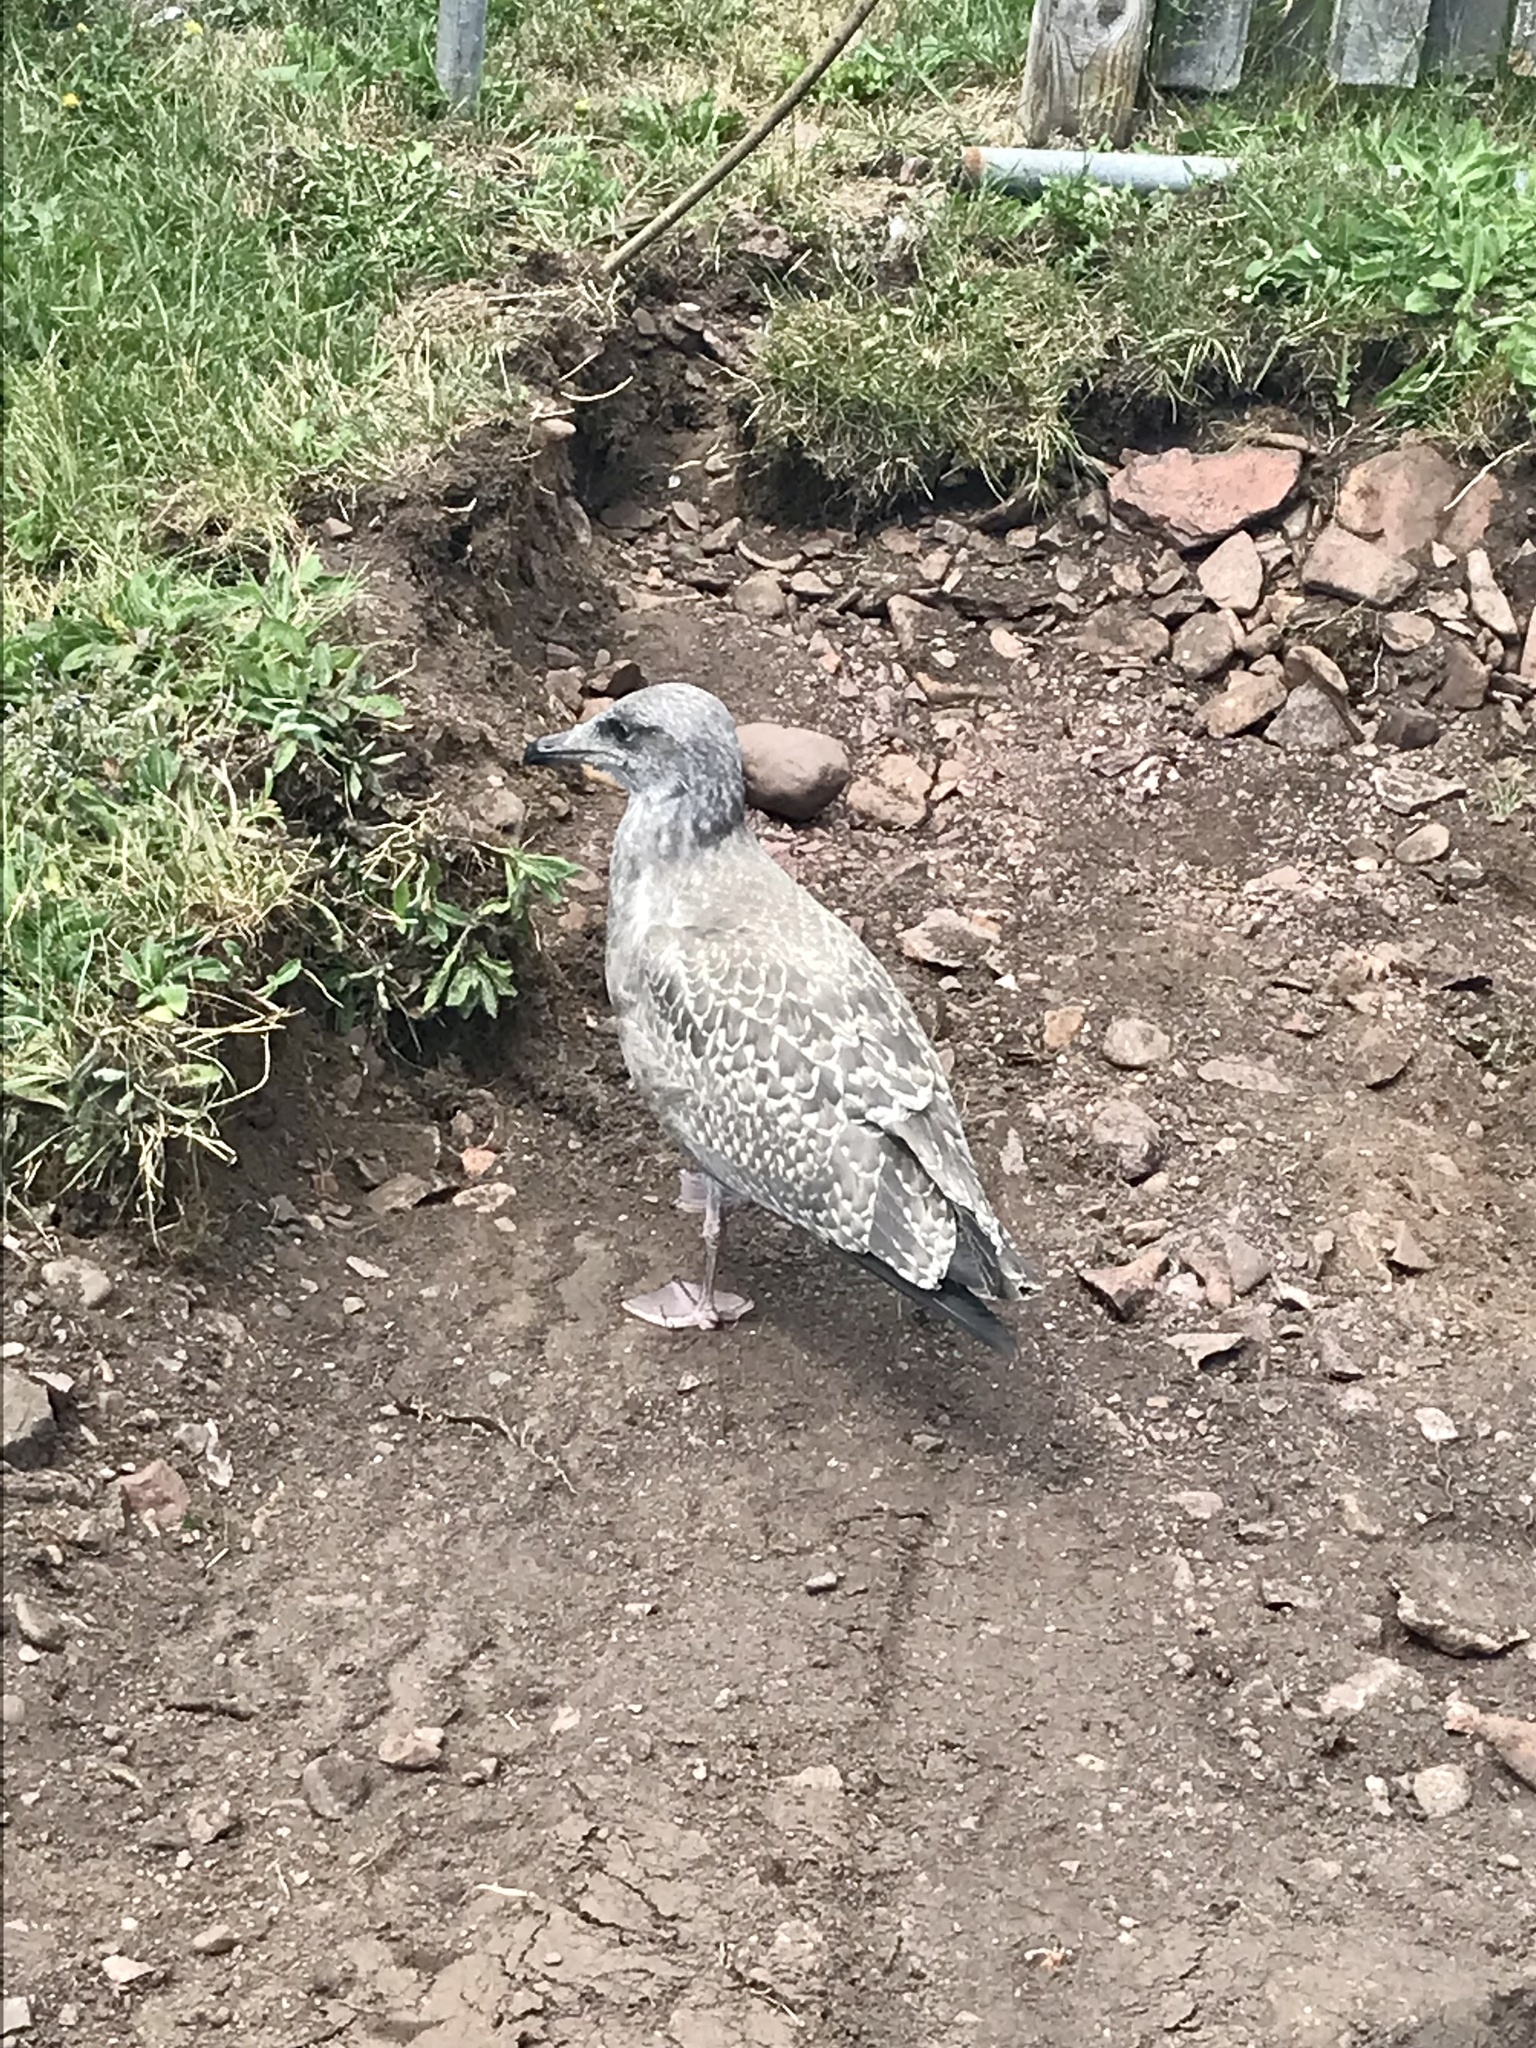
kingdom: Animalia
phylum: Chordata
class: Aves
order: Charadriiformes
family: Laridae
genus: Larus
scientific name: Larus argentatus
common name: Herring gull
